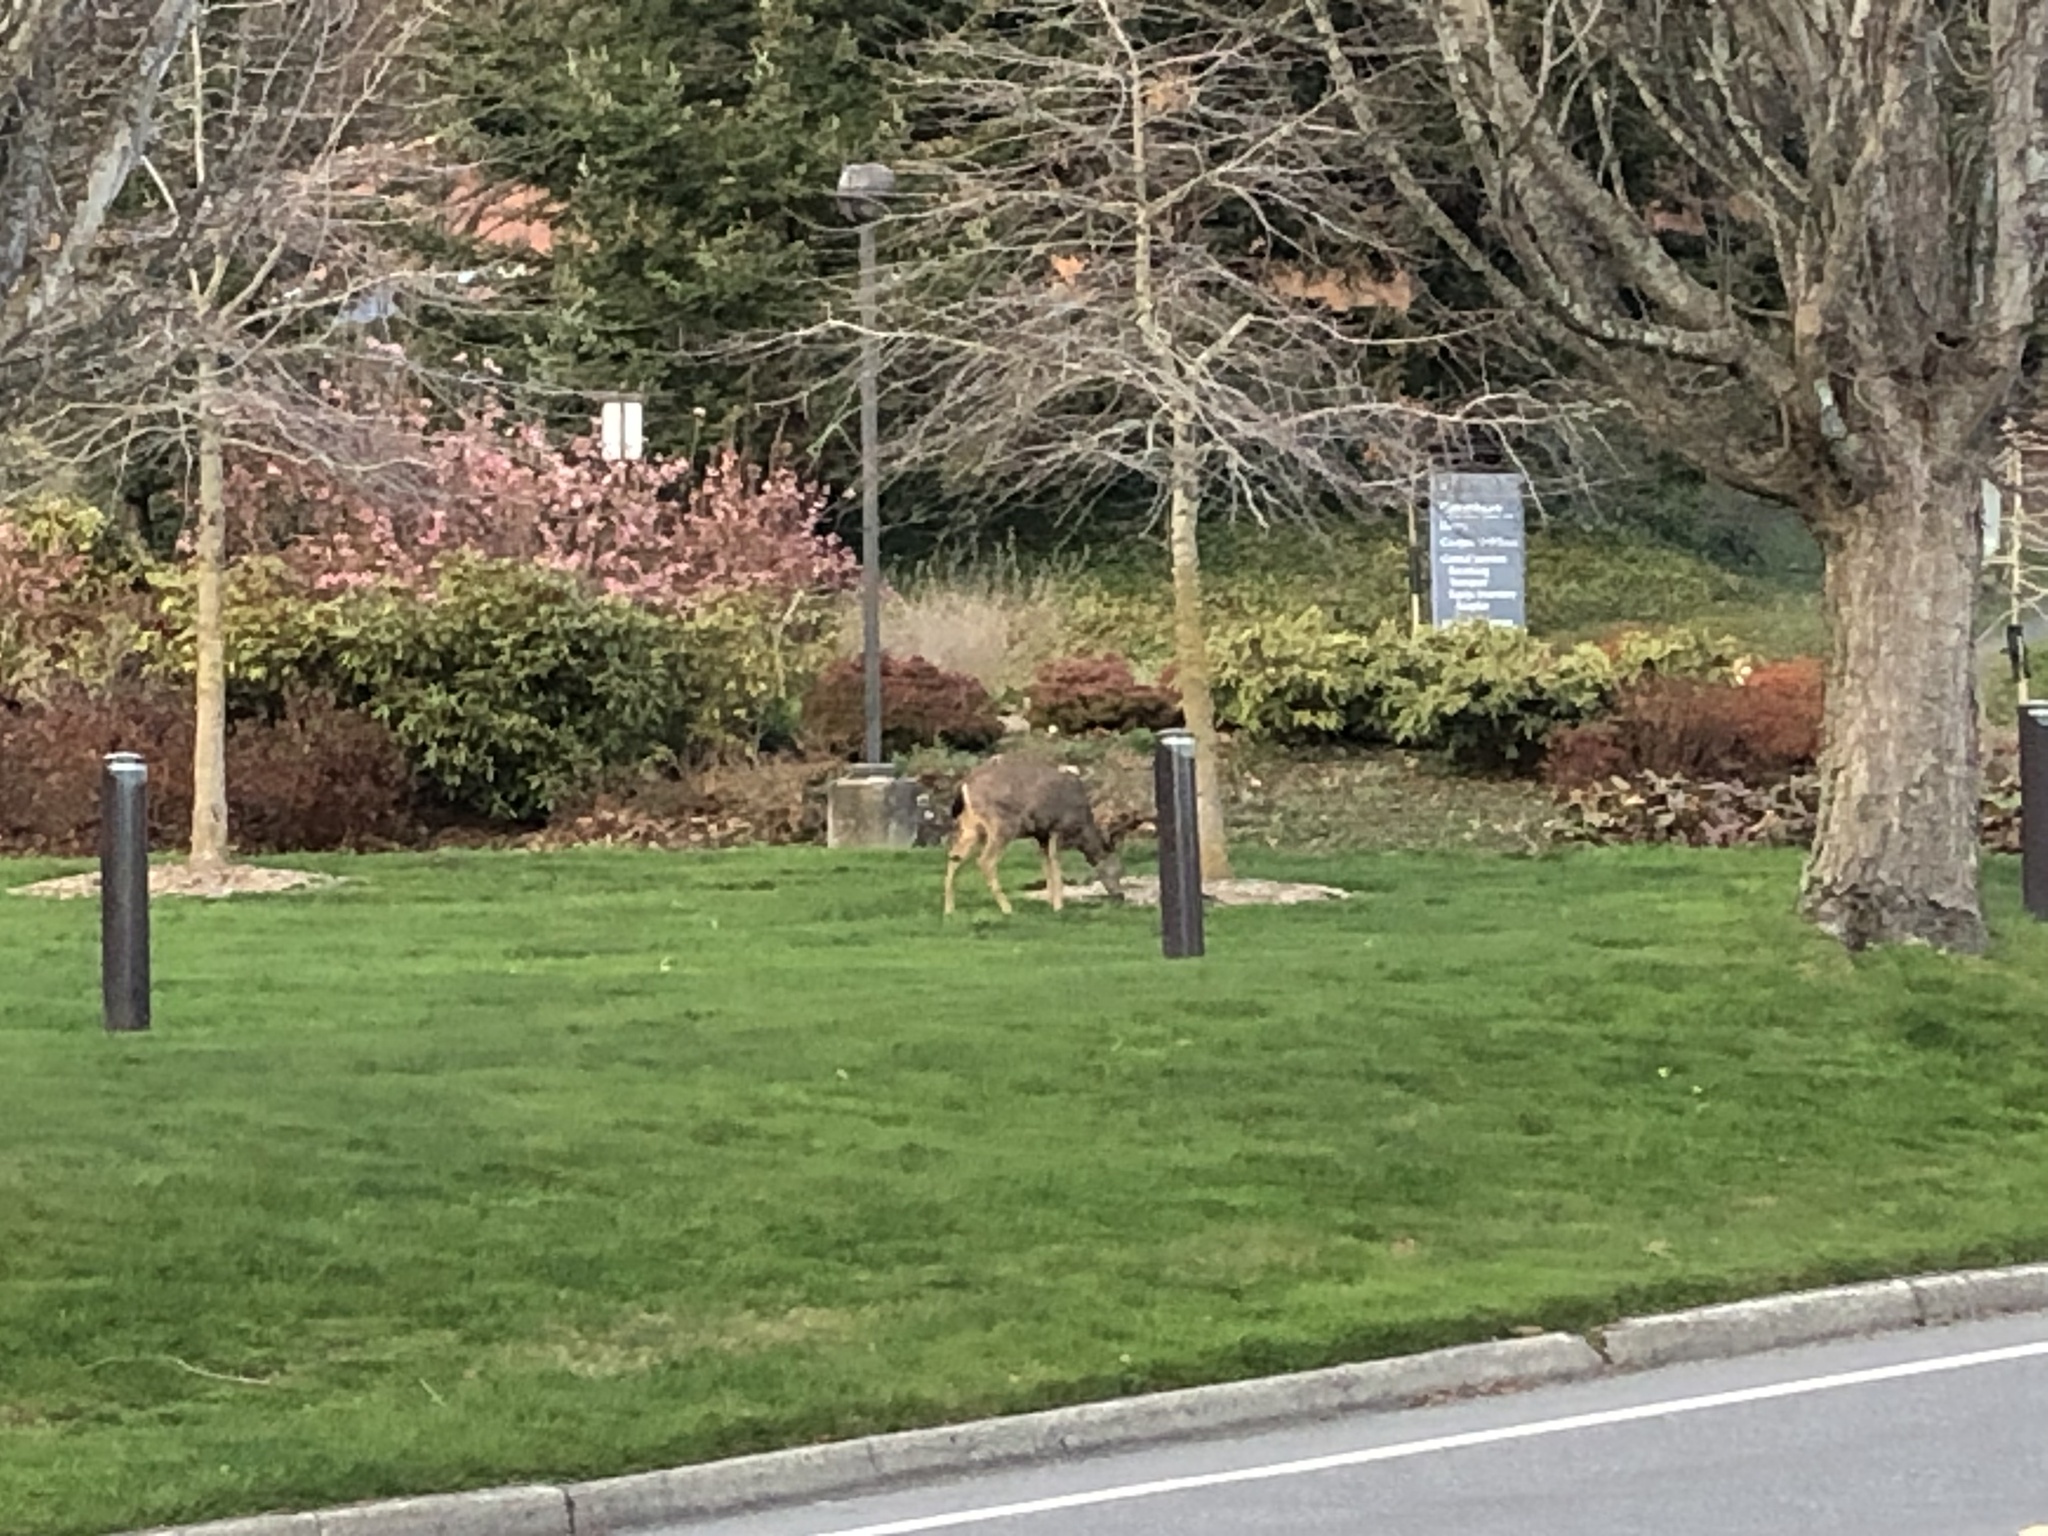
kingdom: Animalia
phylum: Chordata
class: Mammalia
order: Artiodactyla
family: Cervidae
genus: Odocoileus
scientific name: Odocoileus hemionus
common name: Mule deer
